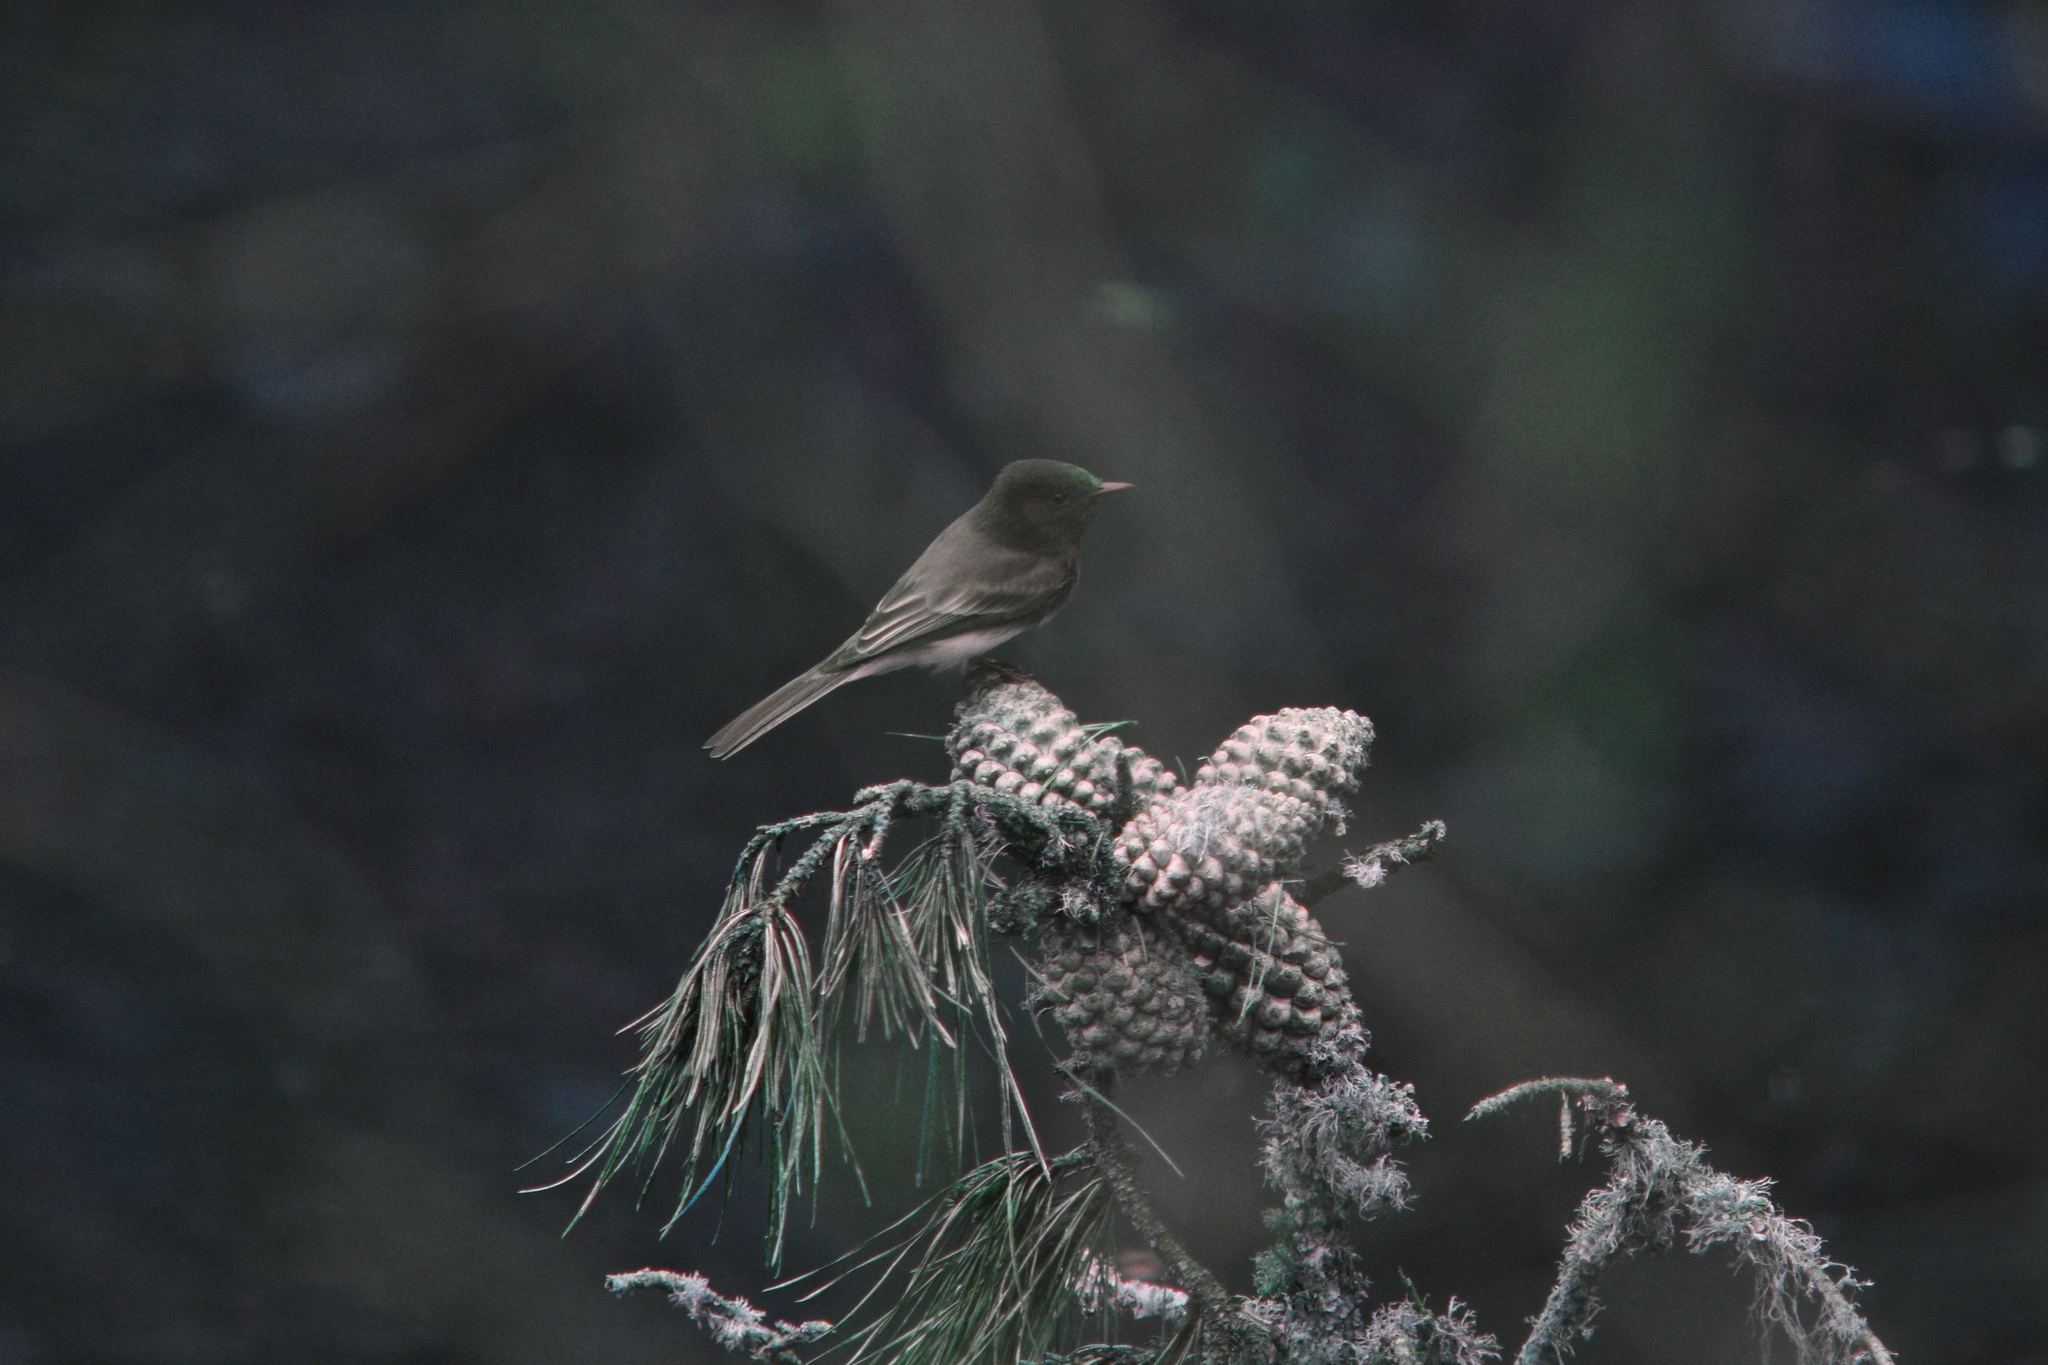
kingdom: Animalia
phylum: Chordata
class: Aves
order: Passeriformes
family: Tyrannidae
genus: Sayornis
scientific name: Sayornis nigricans
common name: Black phoebe
